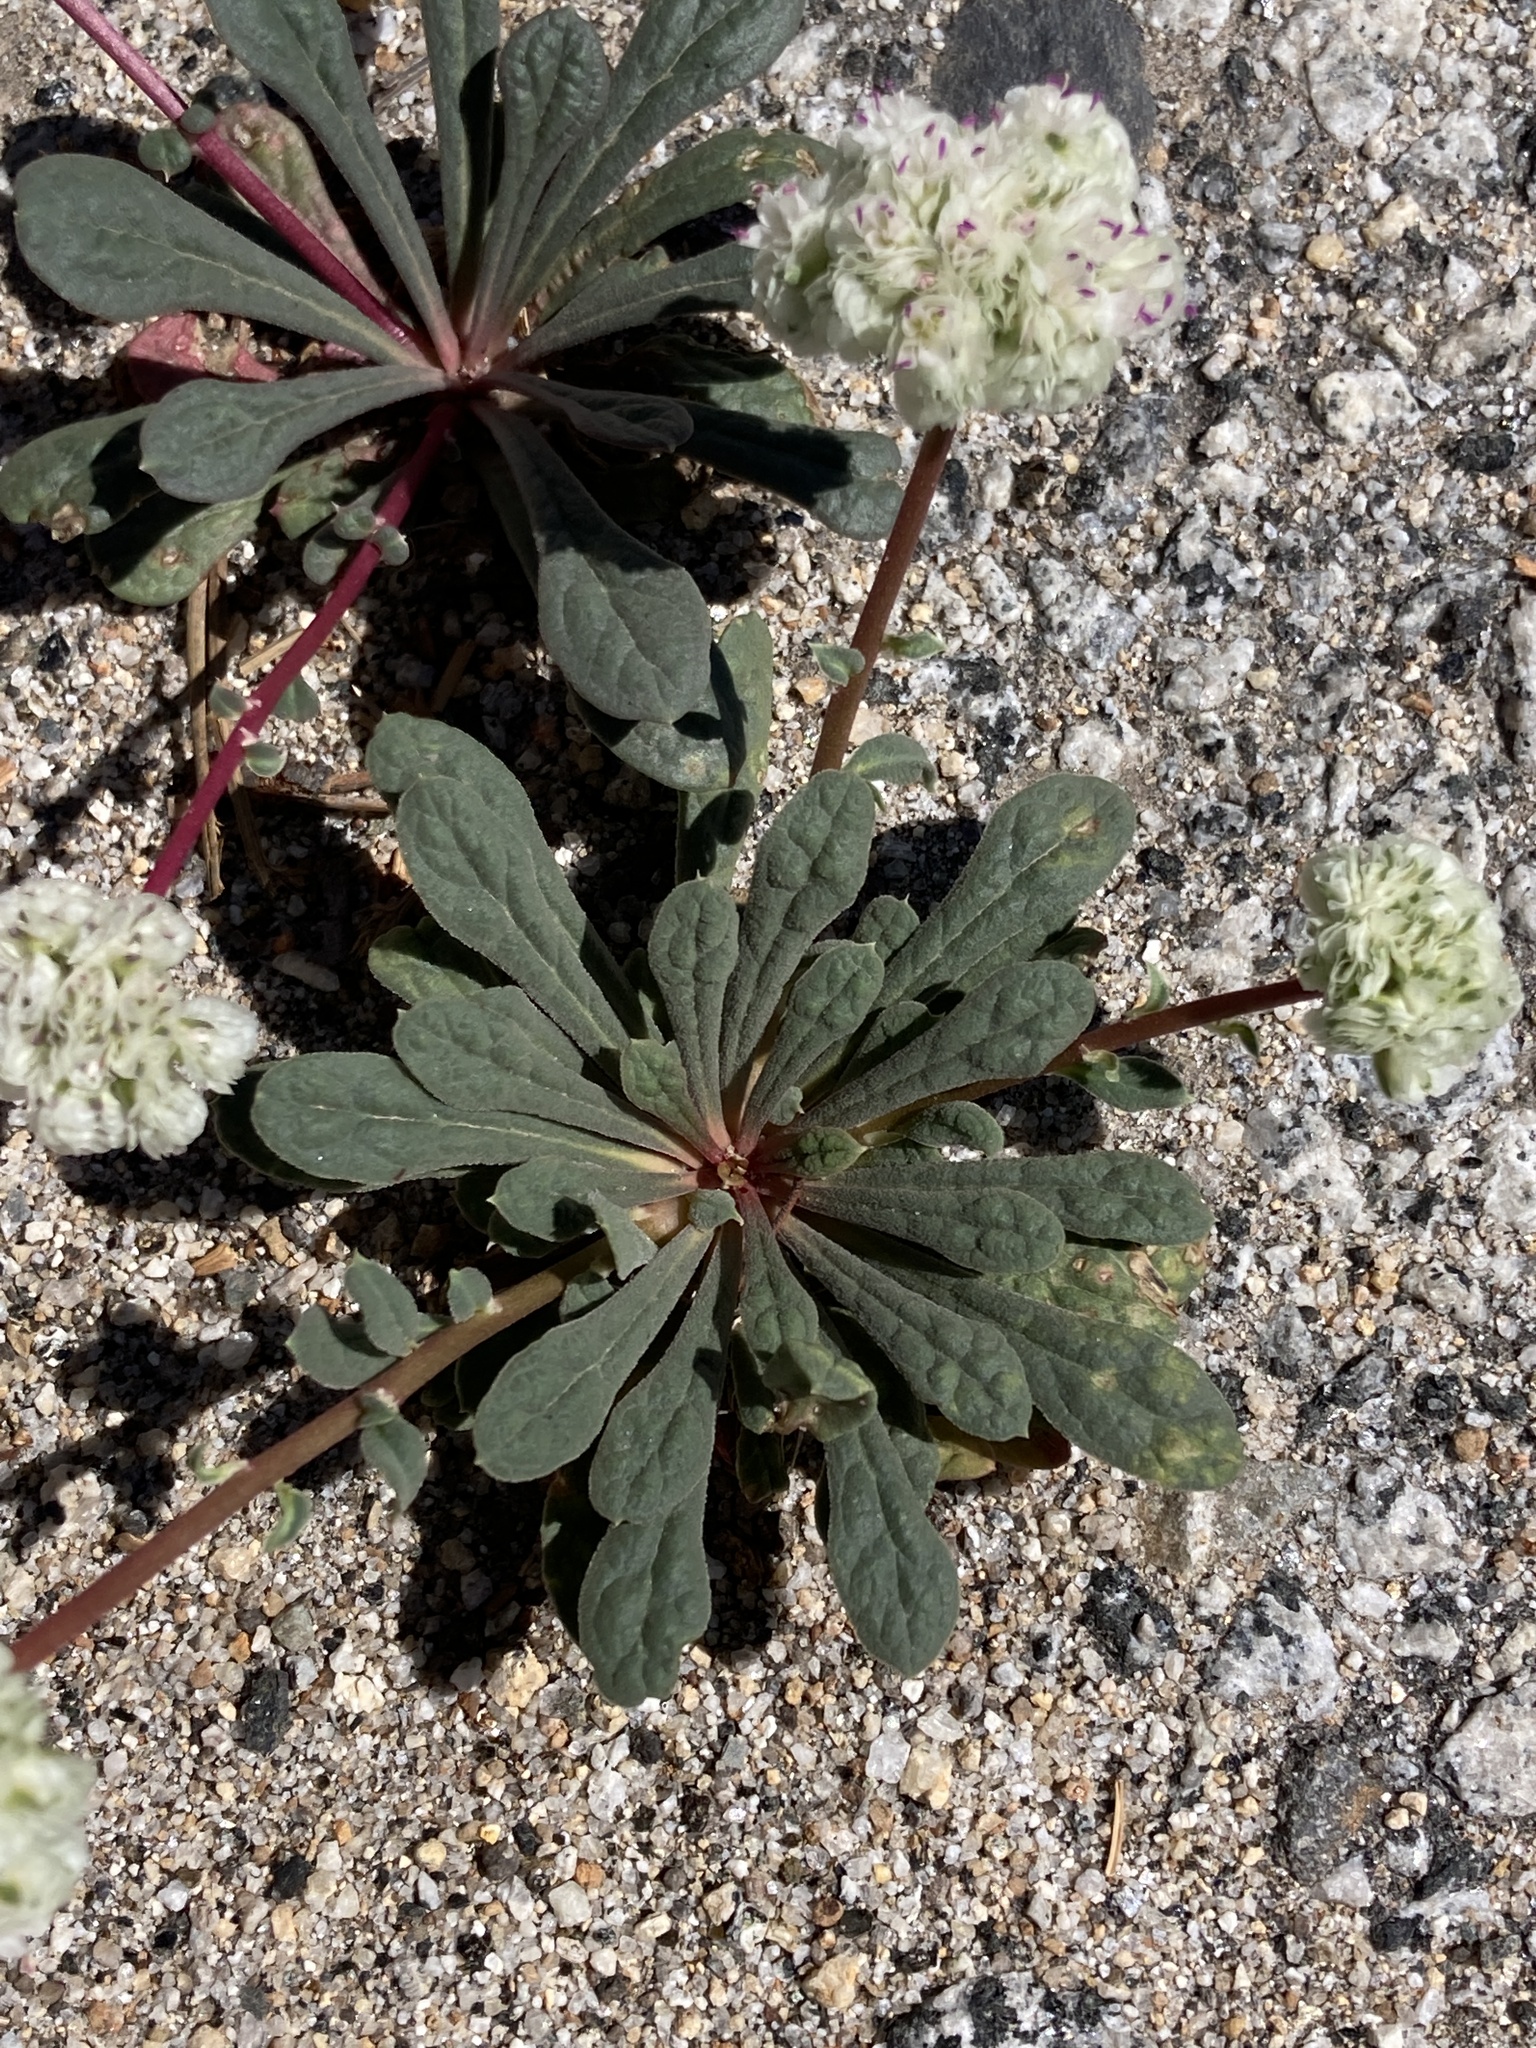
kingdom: Plantae
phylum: Tracheophyta
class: Magnoliopsida
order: Caryophyllales
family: Montiaceae
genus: Calyptridium
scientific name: Calyptridium monospermum
